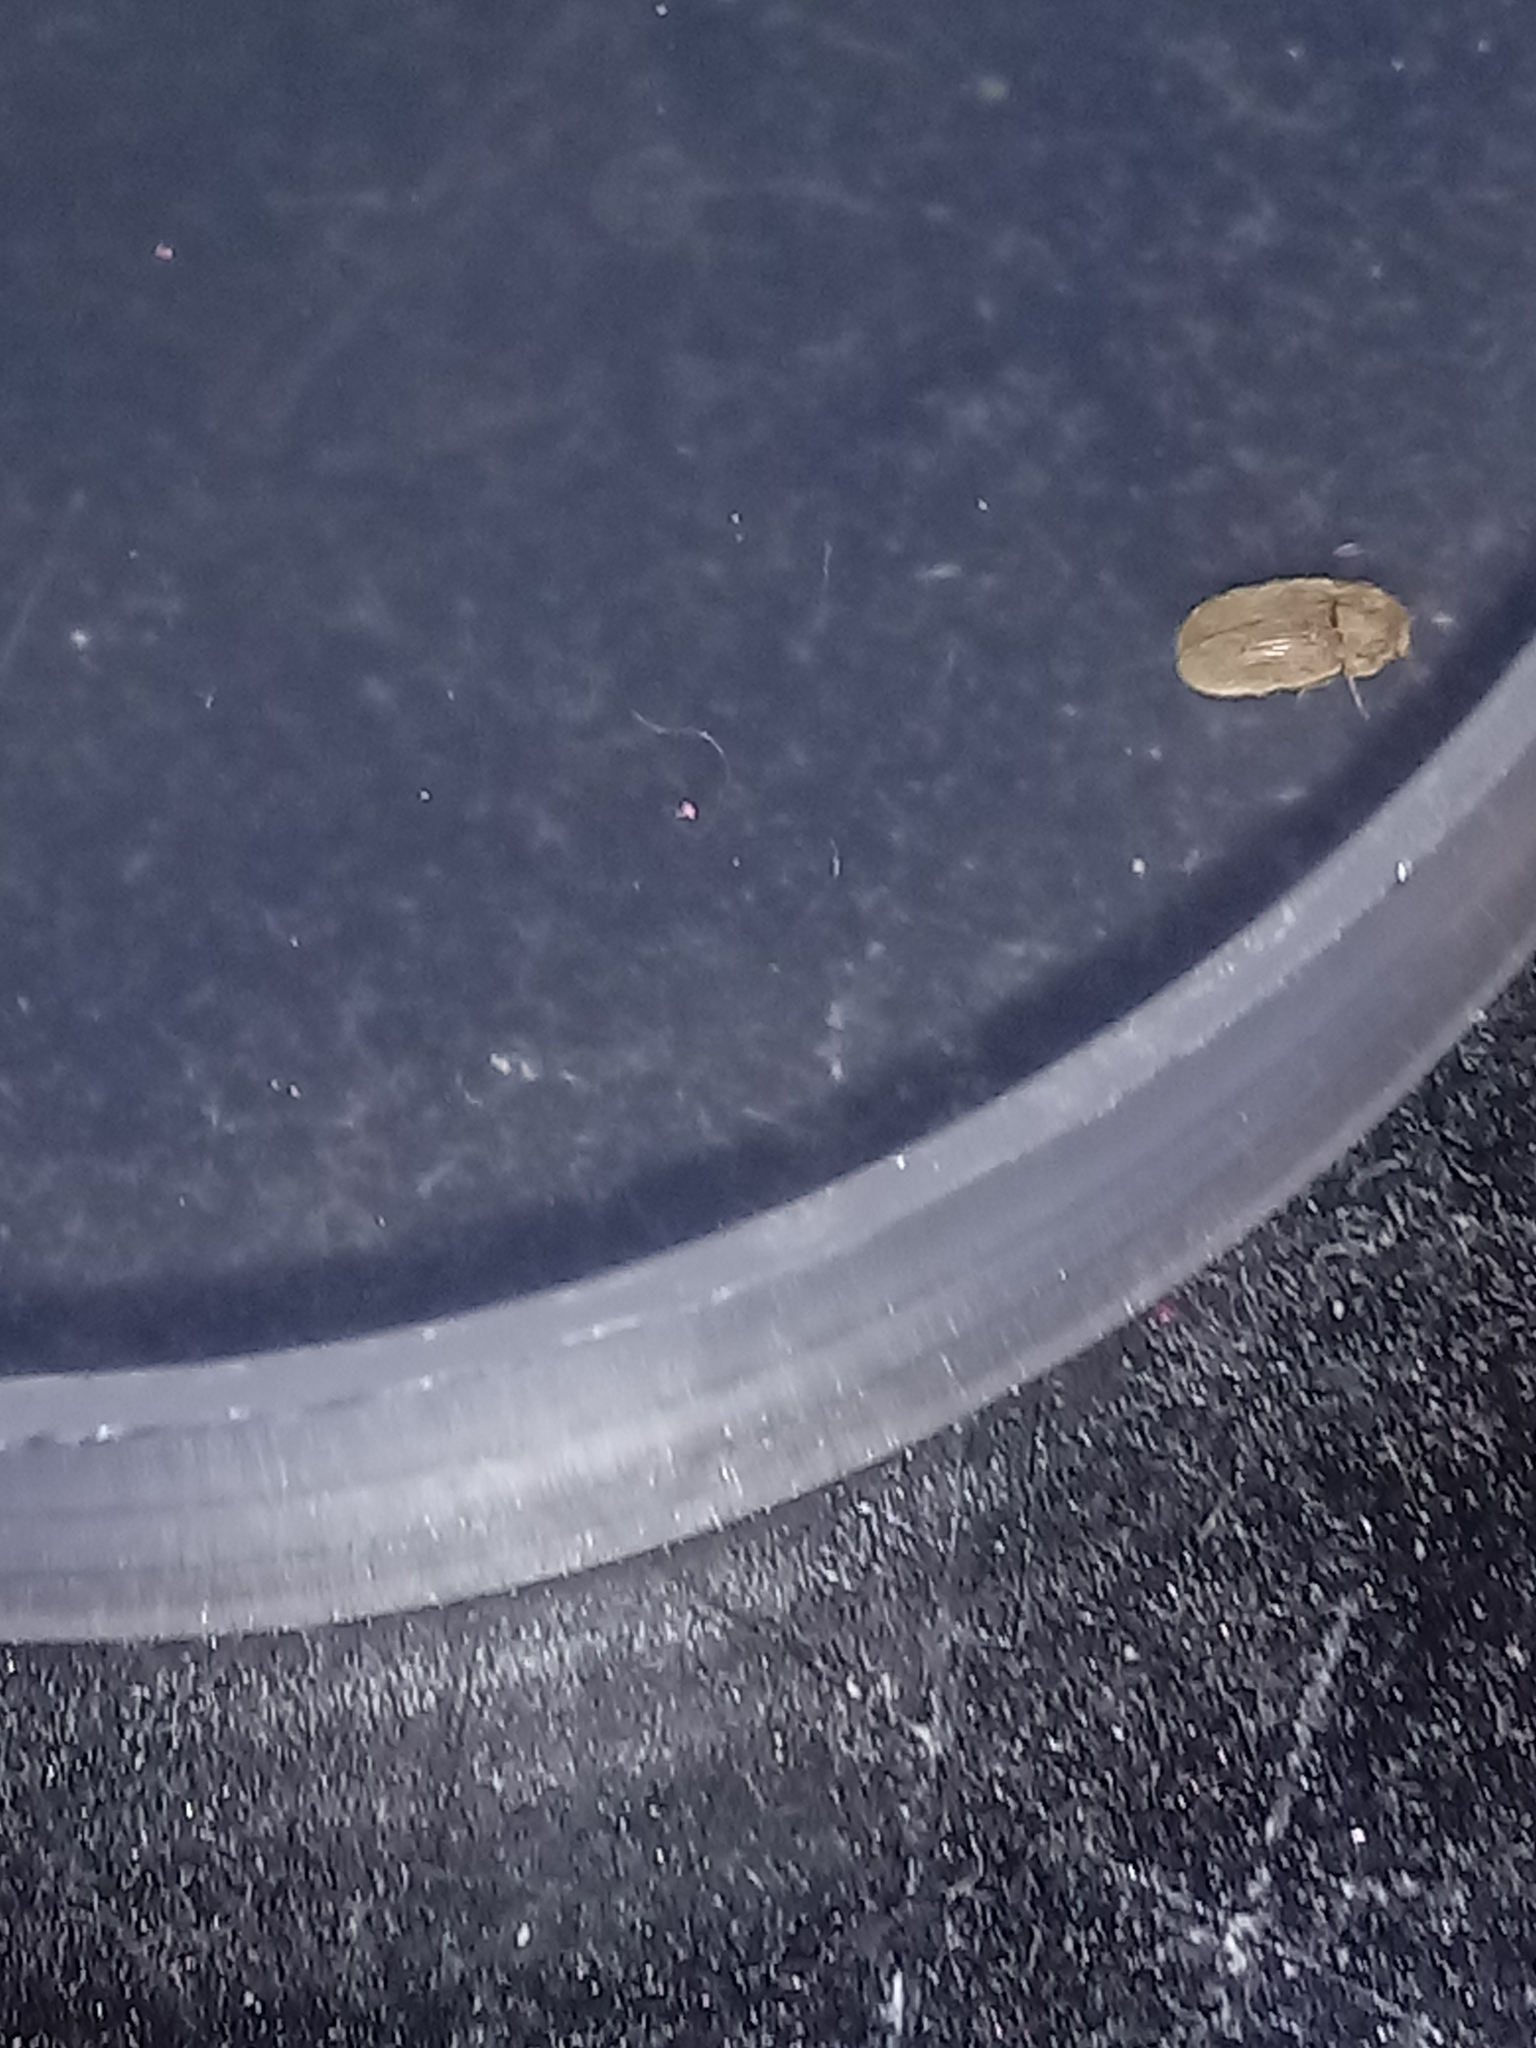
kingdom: Animalia
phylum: Arthropoda
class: Insecta
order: Coleoptera
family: Anobiidae
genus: Stegobium
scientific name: Stegobium paniceum
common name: Drugstore beetle
